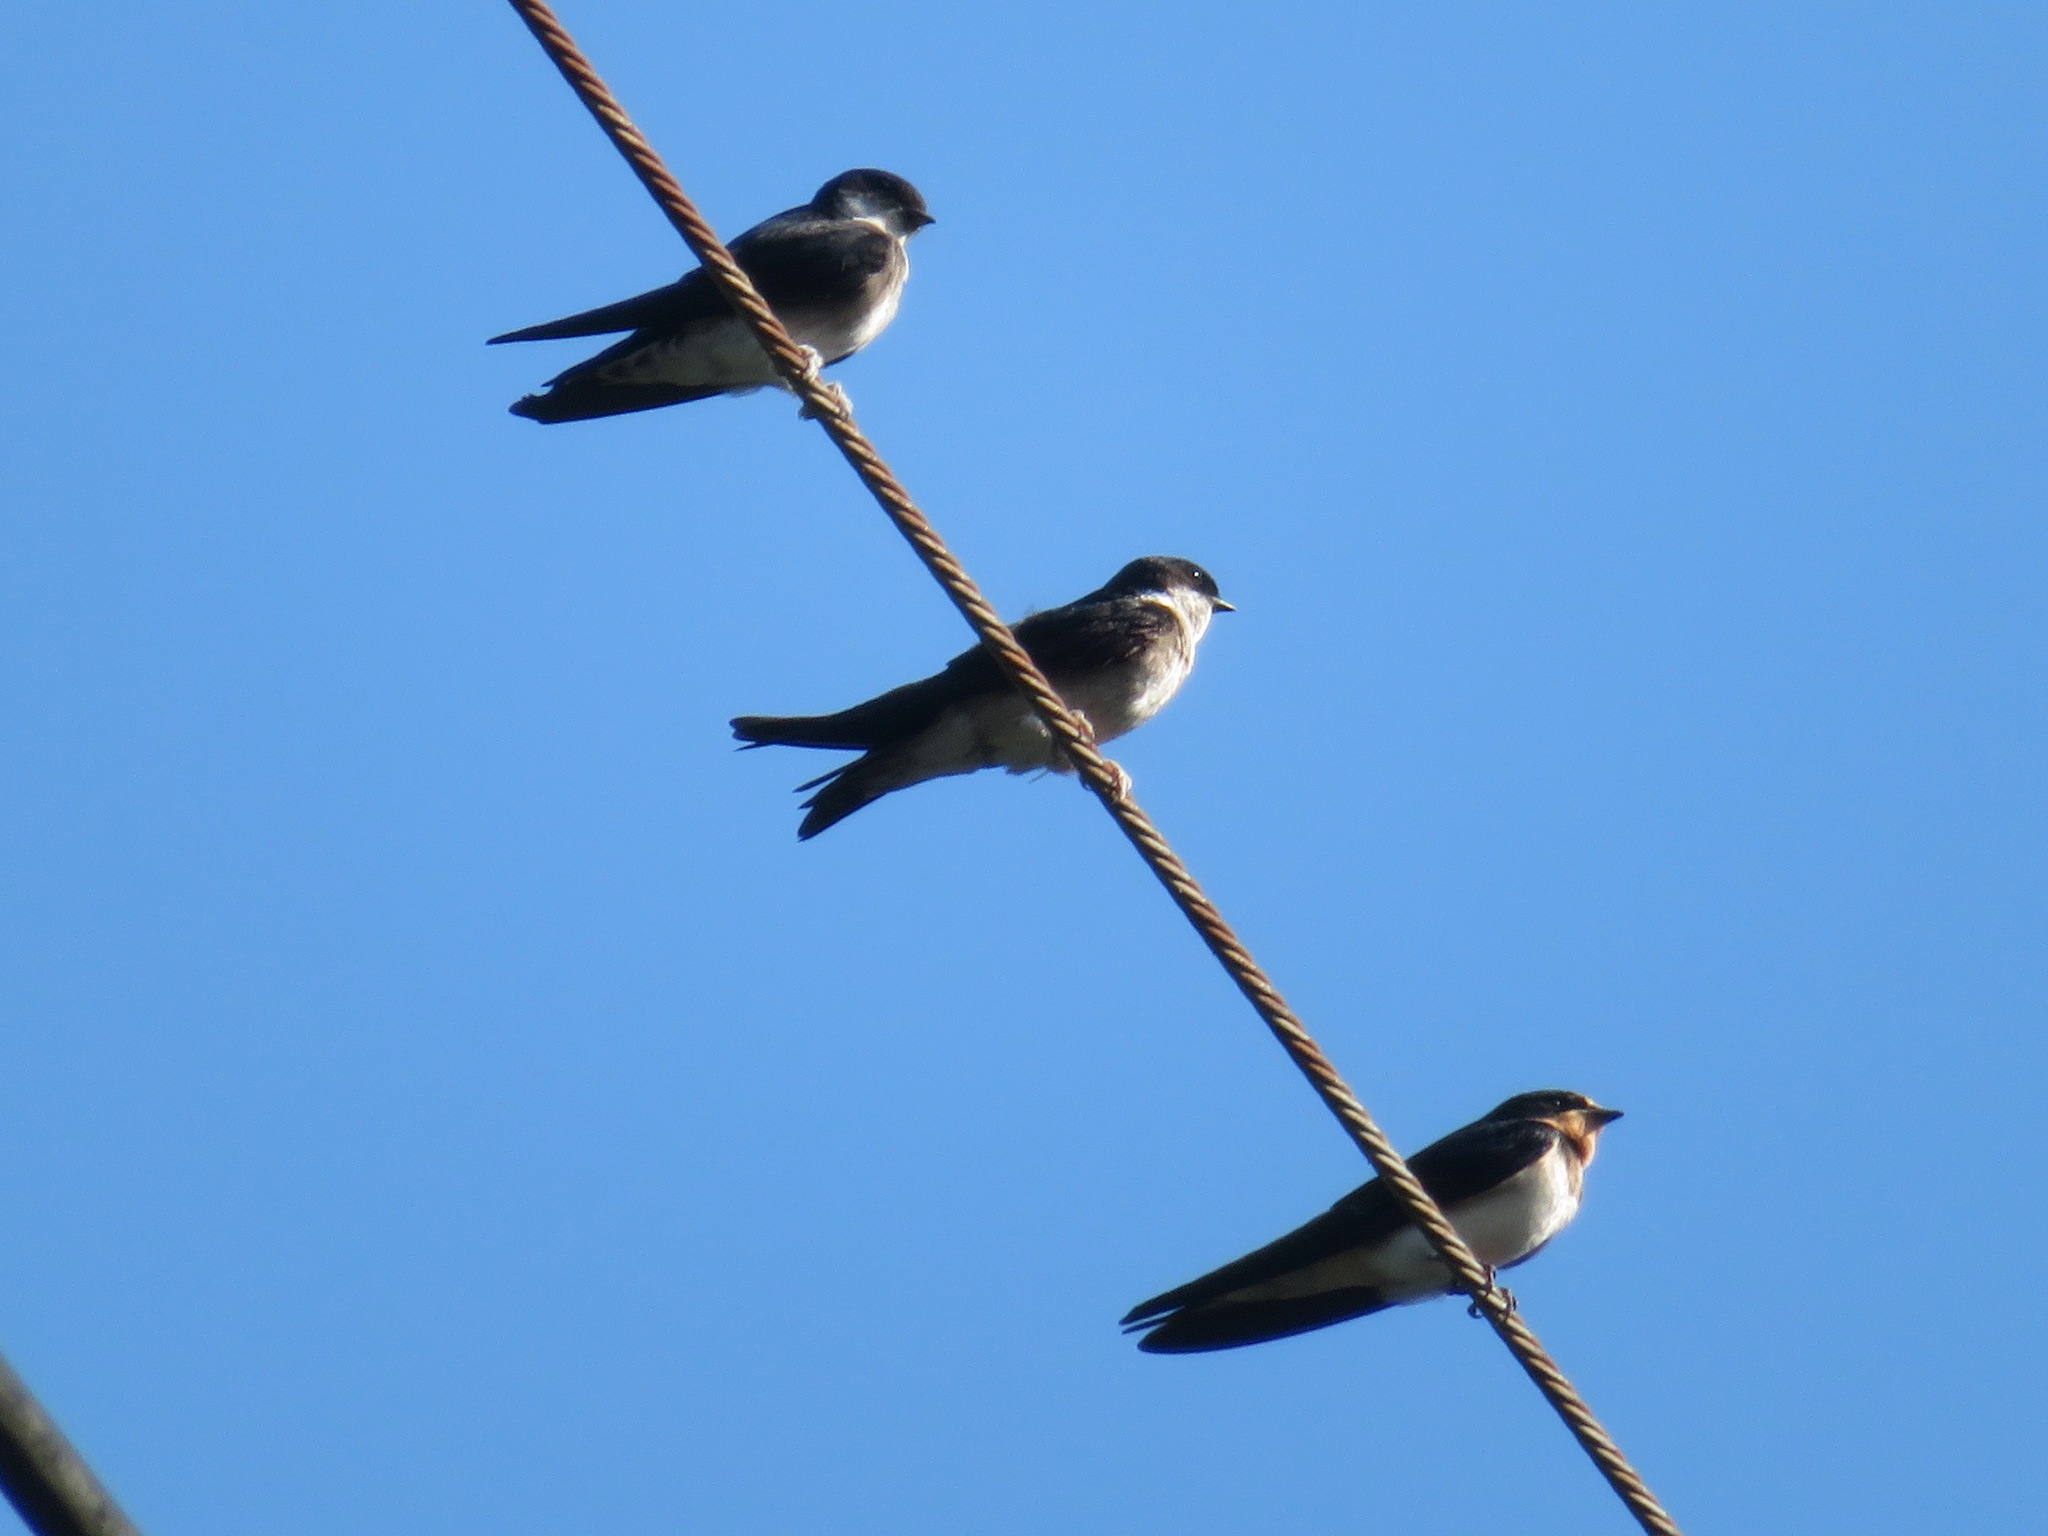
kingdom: Animalia
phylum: Chordata
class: Aves
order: Passeriformes
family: Hirundinidae
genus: Hirundo
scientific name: Hirundo rustica
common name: Barn swallow
